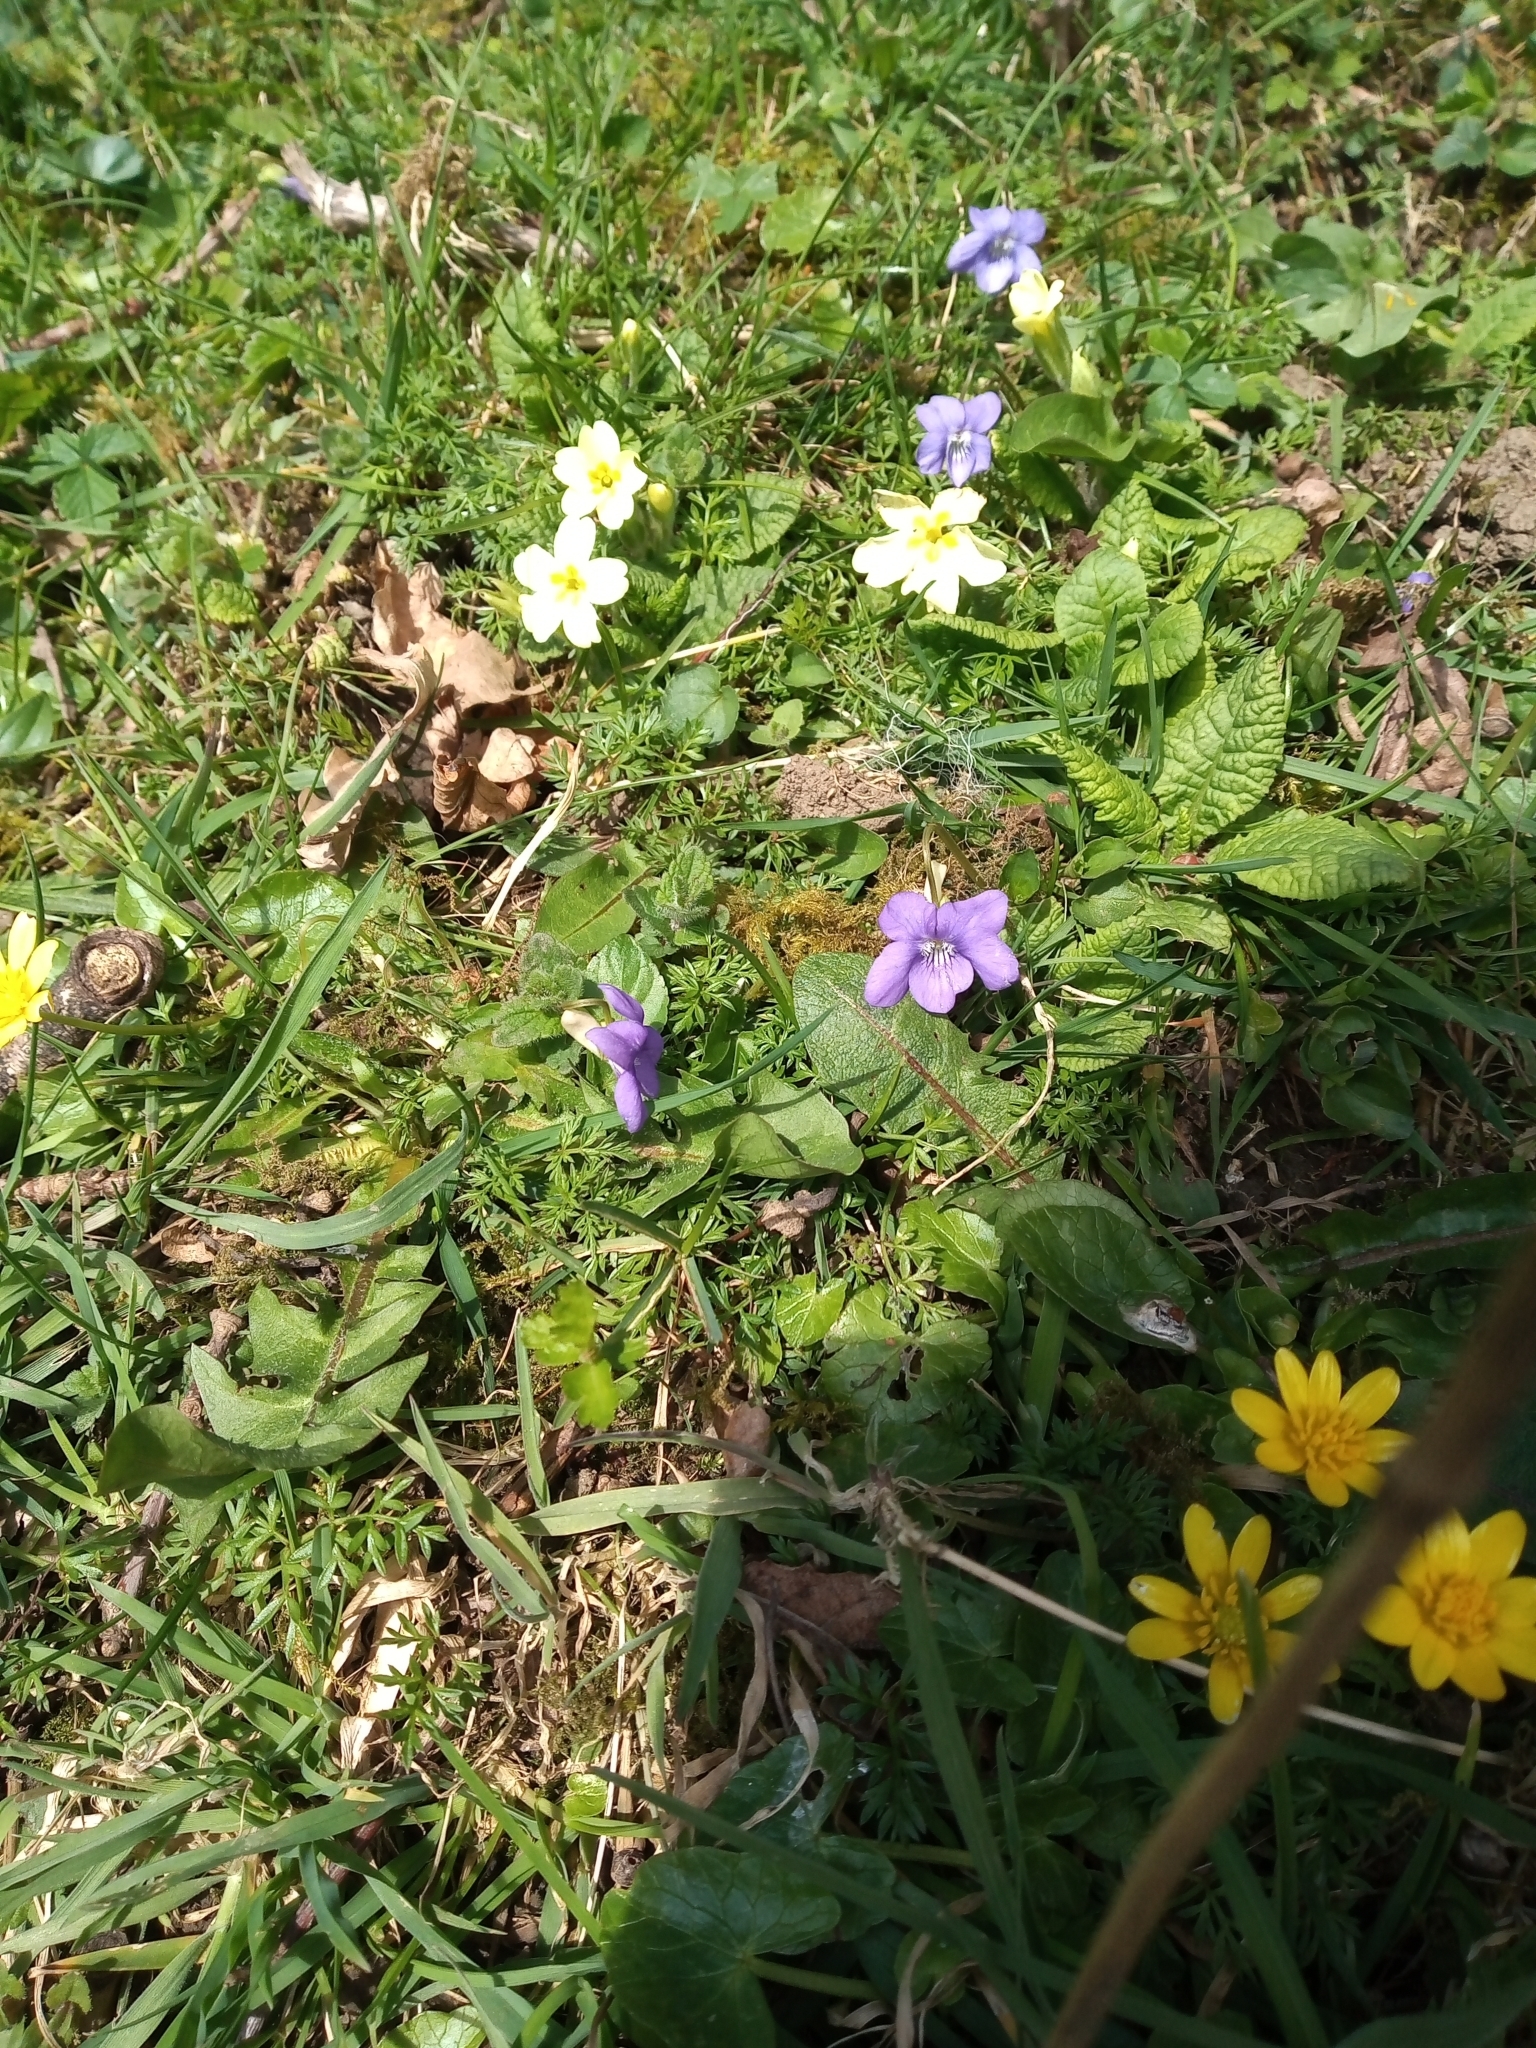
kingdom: Plantae
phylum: Tracheophyta
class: Magnoliopsida
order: Ranunculales
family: Ranunculaceae
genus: Ficaria
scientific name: Ficaria verna
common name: Lesser celandine
